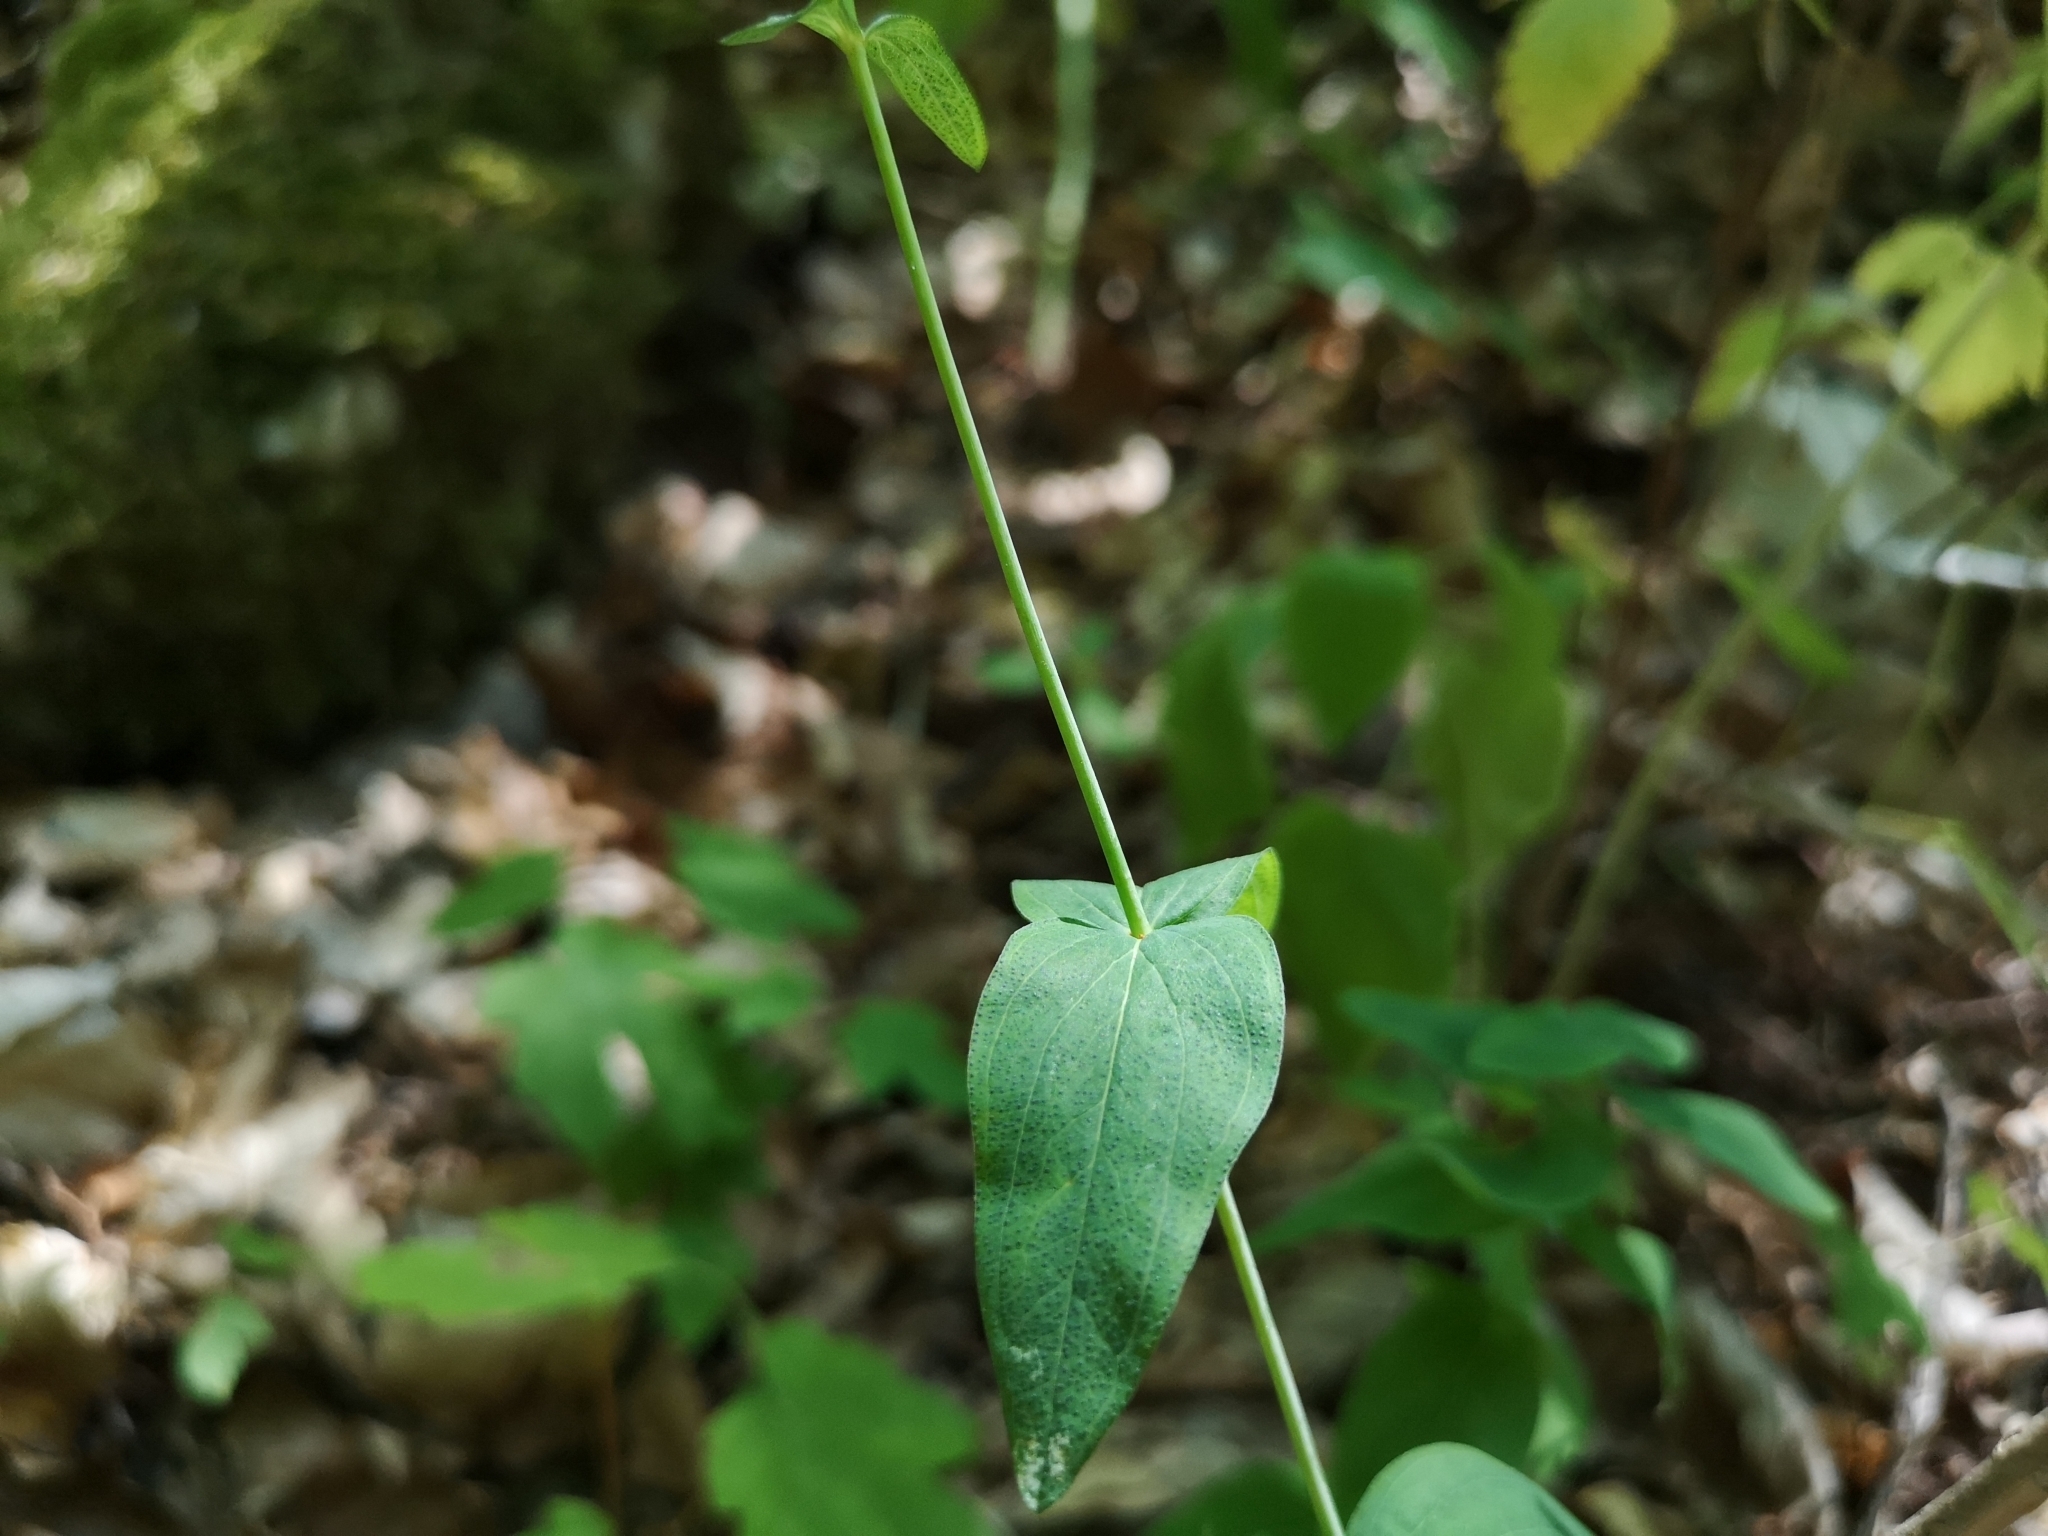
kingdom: Plantae
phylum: Tracheophyta
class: Magnoliopsida
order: Malpighiales
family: Hypericaceae
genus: Hypericum
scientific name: Hypericum montanum
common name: Pale st. john's-wort
